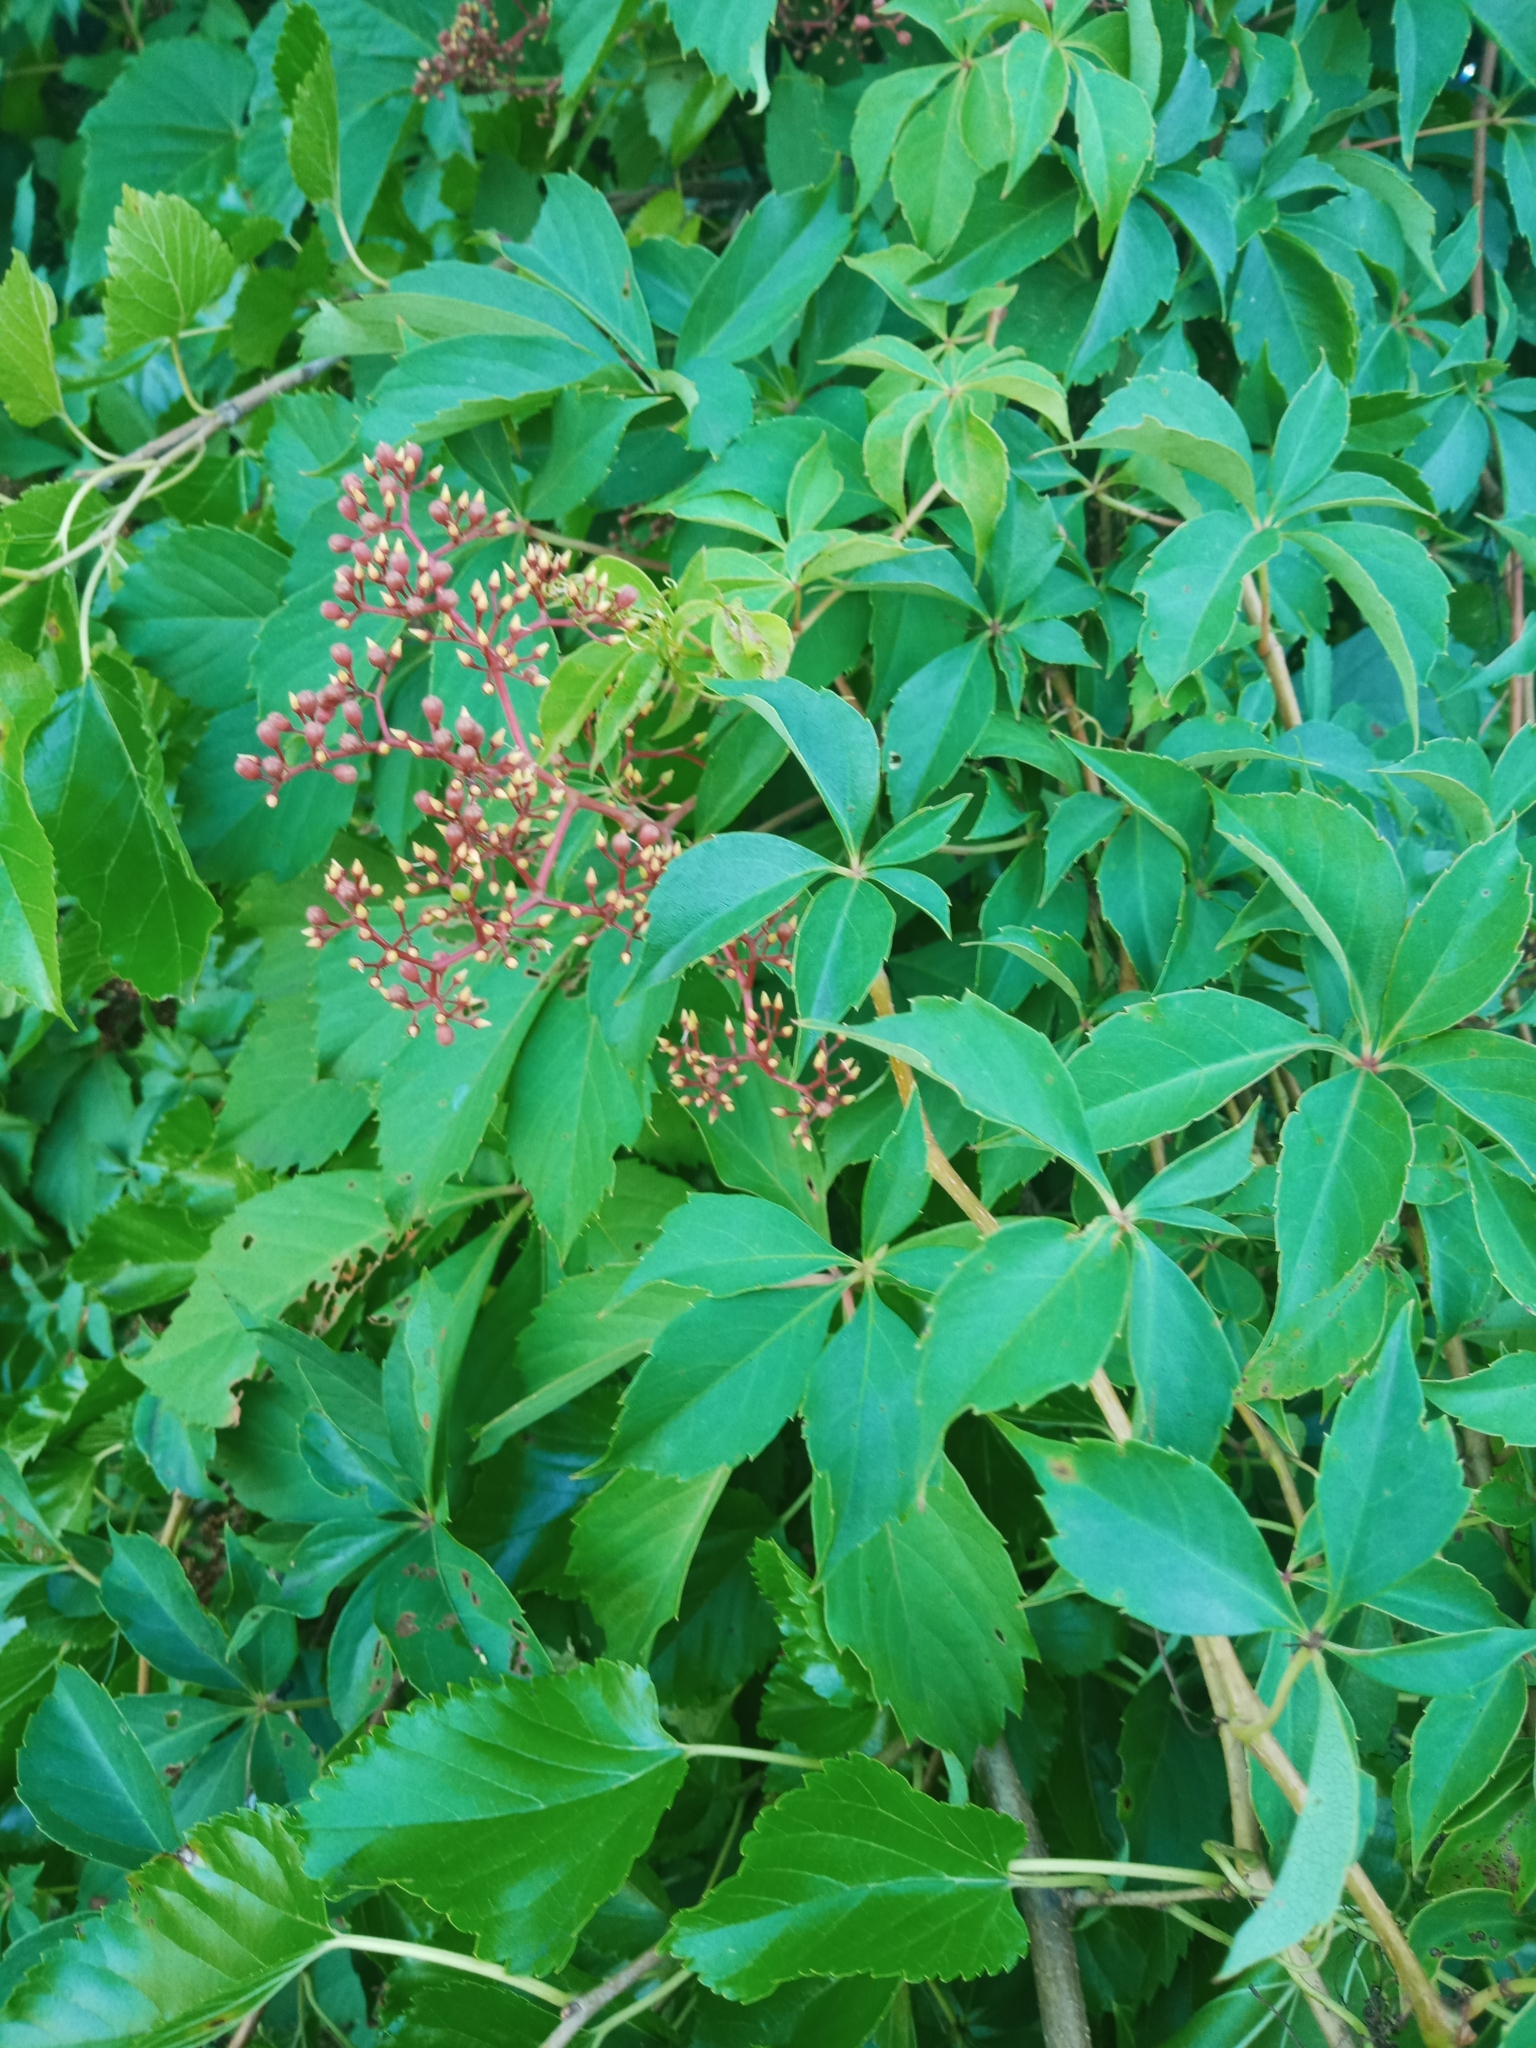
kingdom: Plantae
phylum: Tracheophyta
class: Magnoliopsida
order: Vitales
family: Vitaceae
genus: Parthenocissus
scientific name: Parthenocissus quinquefolia
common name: Virginia-creeper
